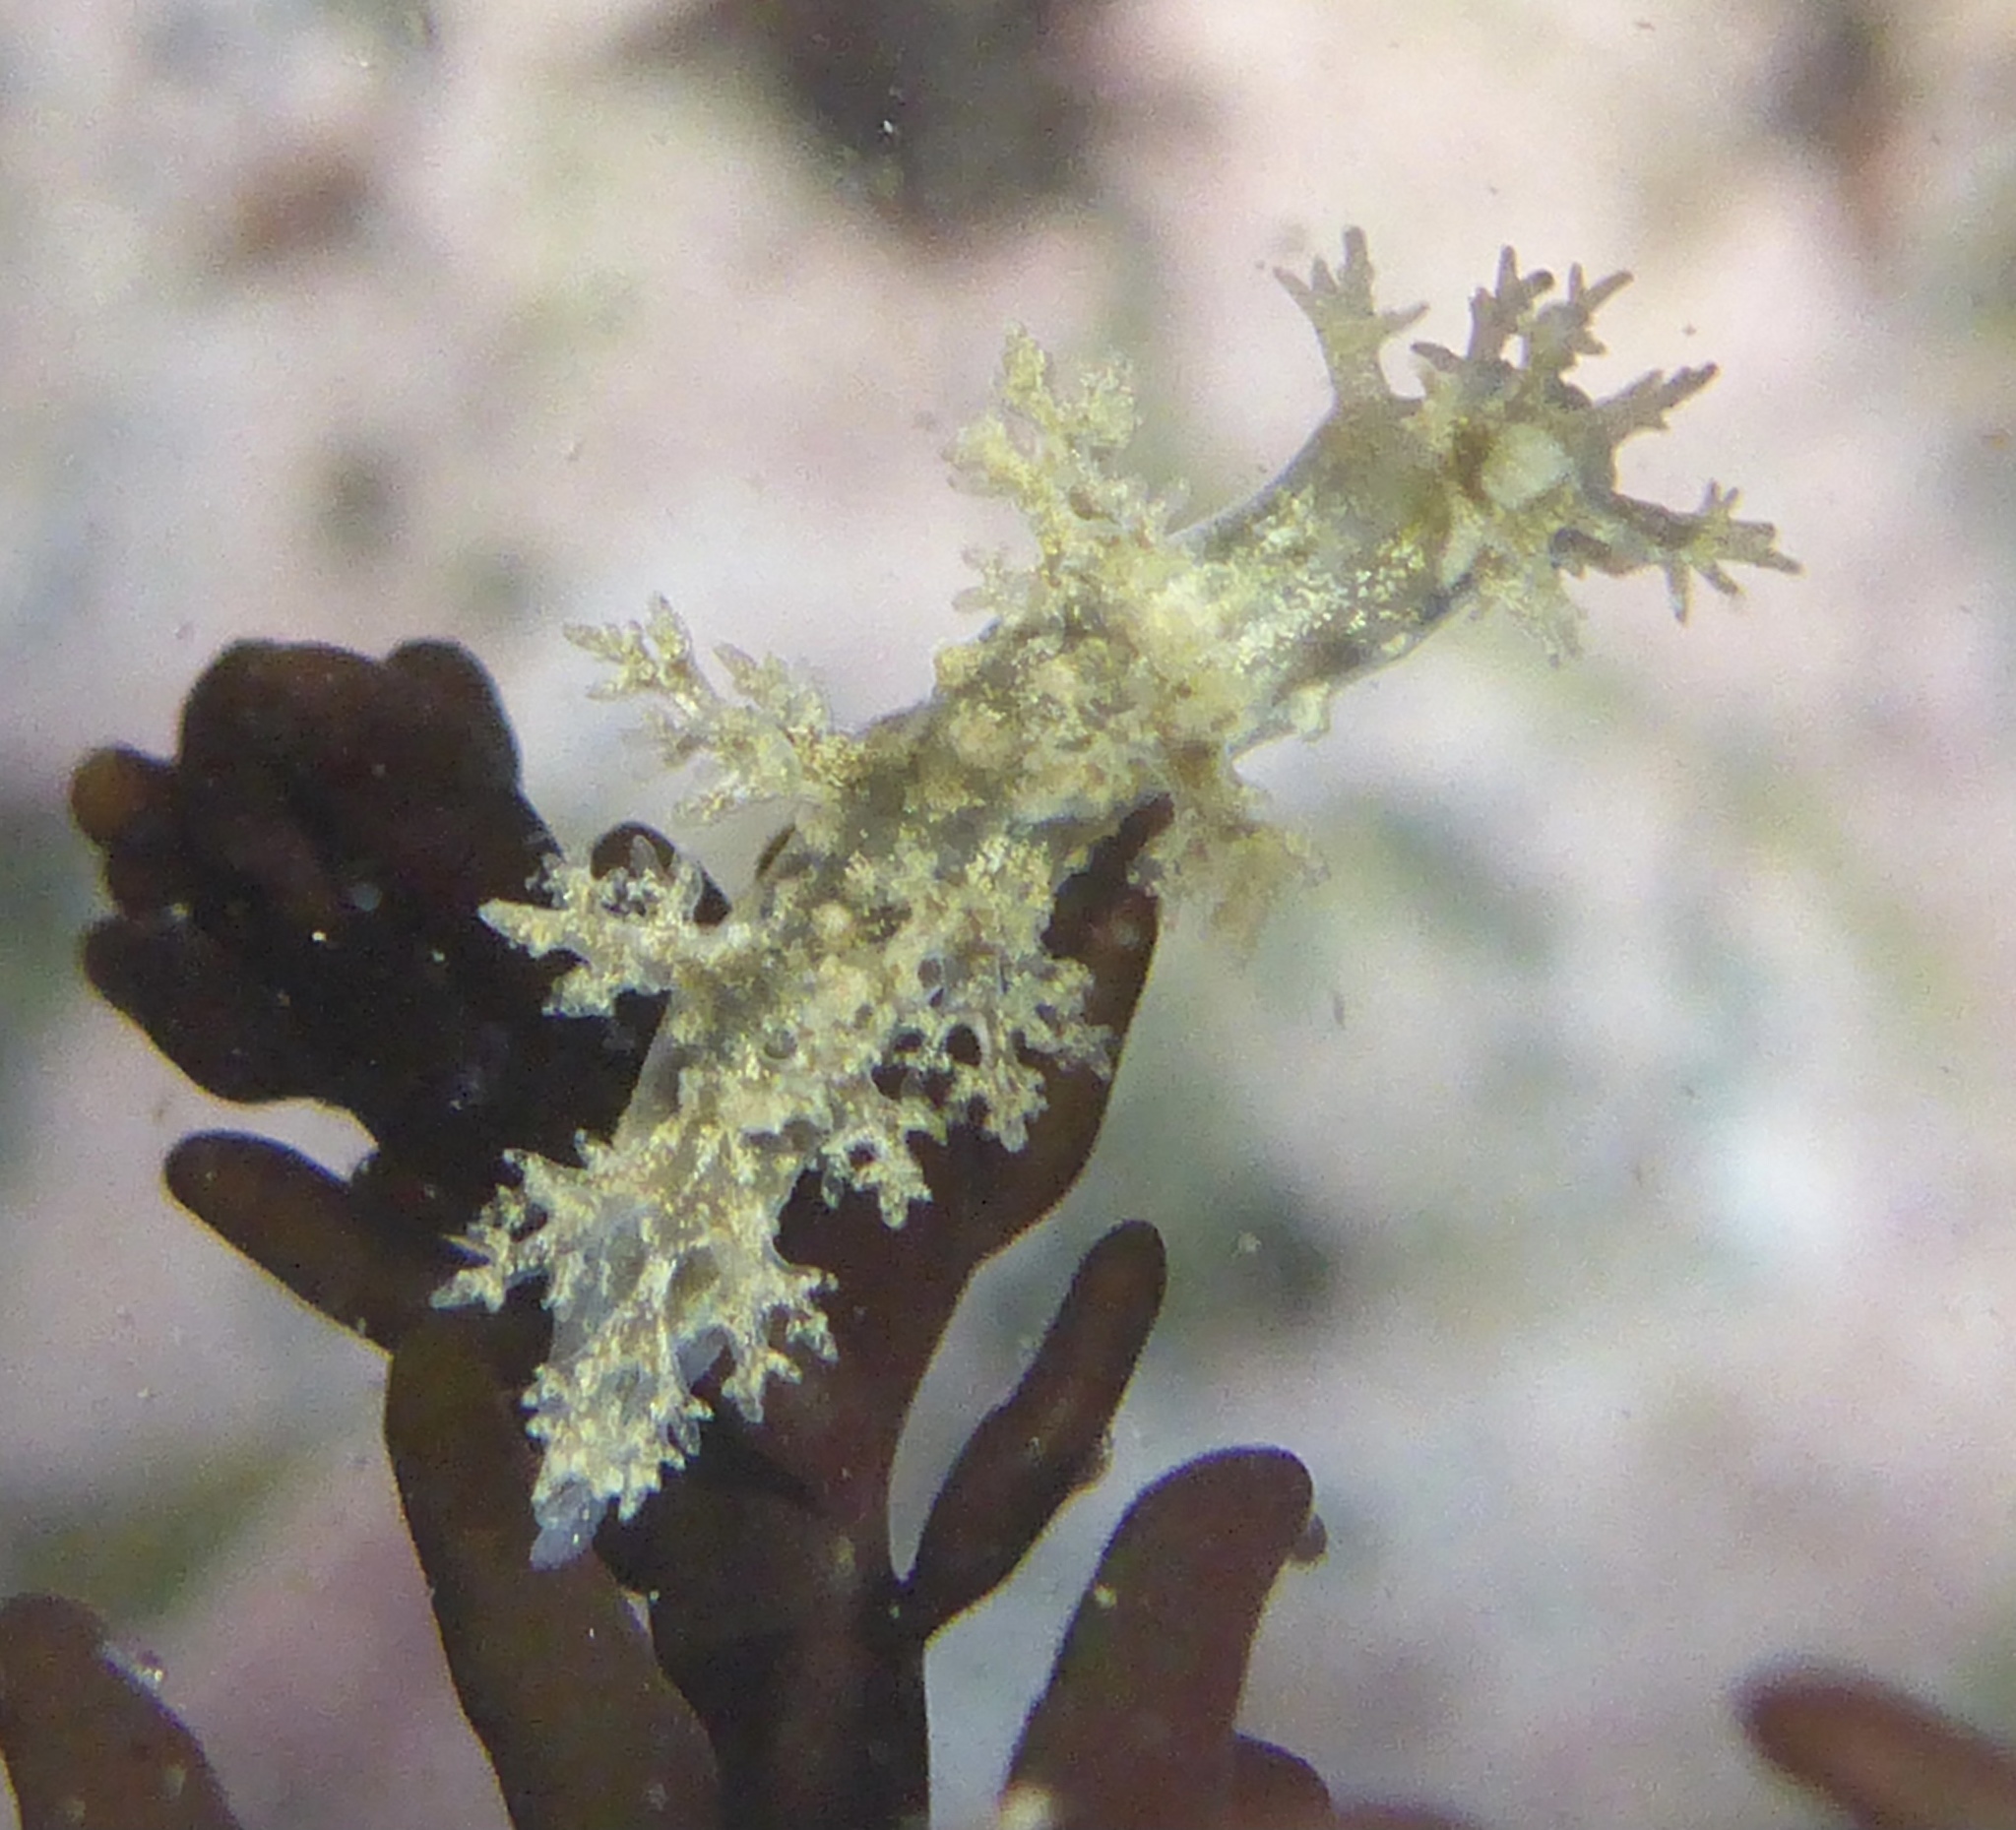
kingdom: Animalia
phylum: Mollusca
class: Gastropoda
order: Nudibranchia
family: Dendronotidae
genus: Dendronotus
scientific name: Dendronotus venustus
